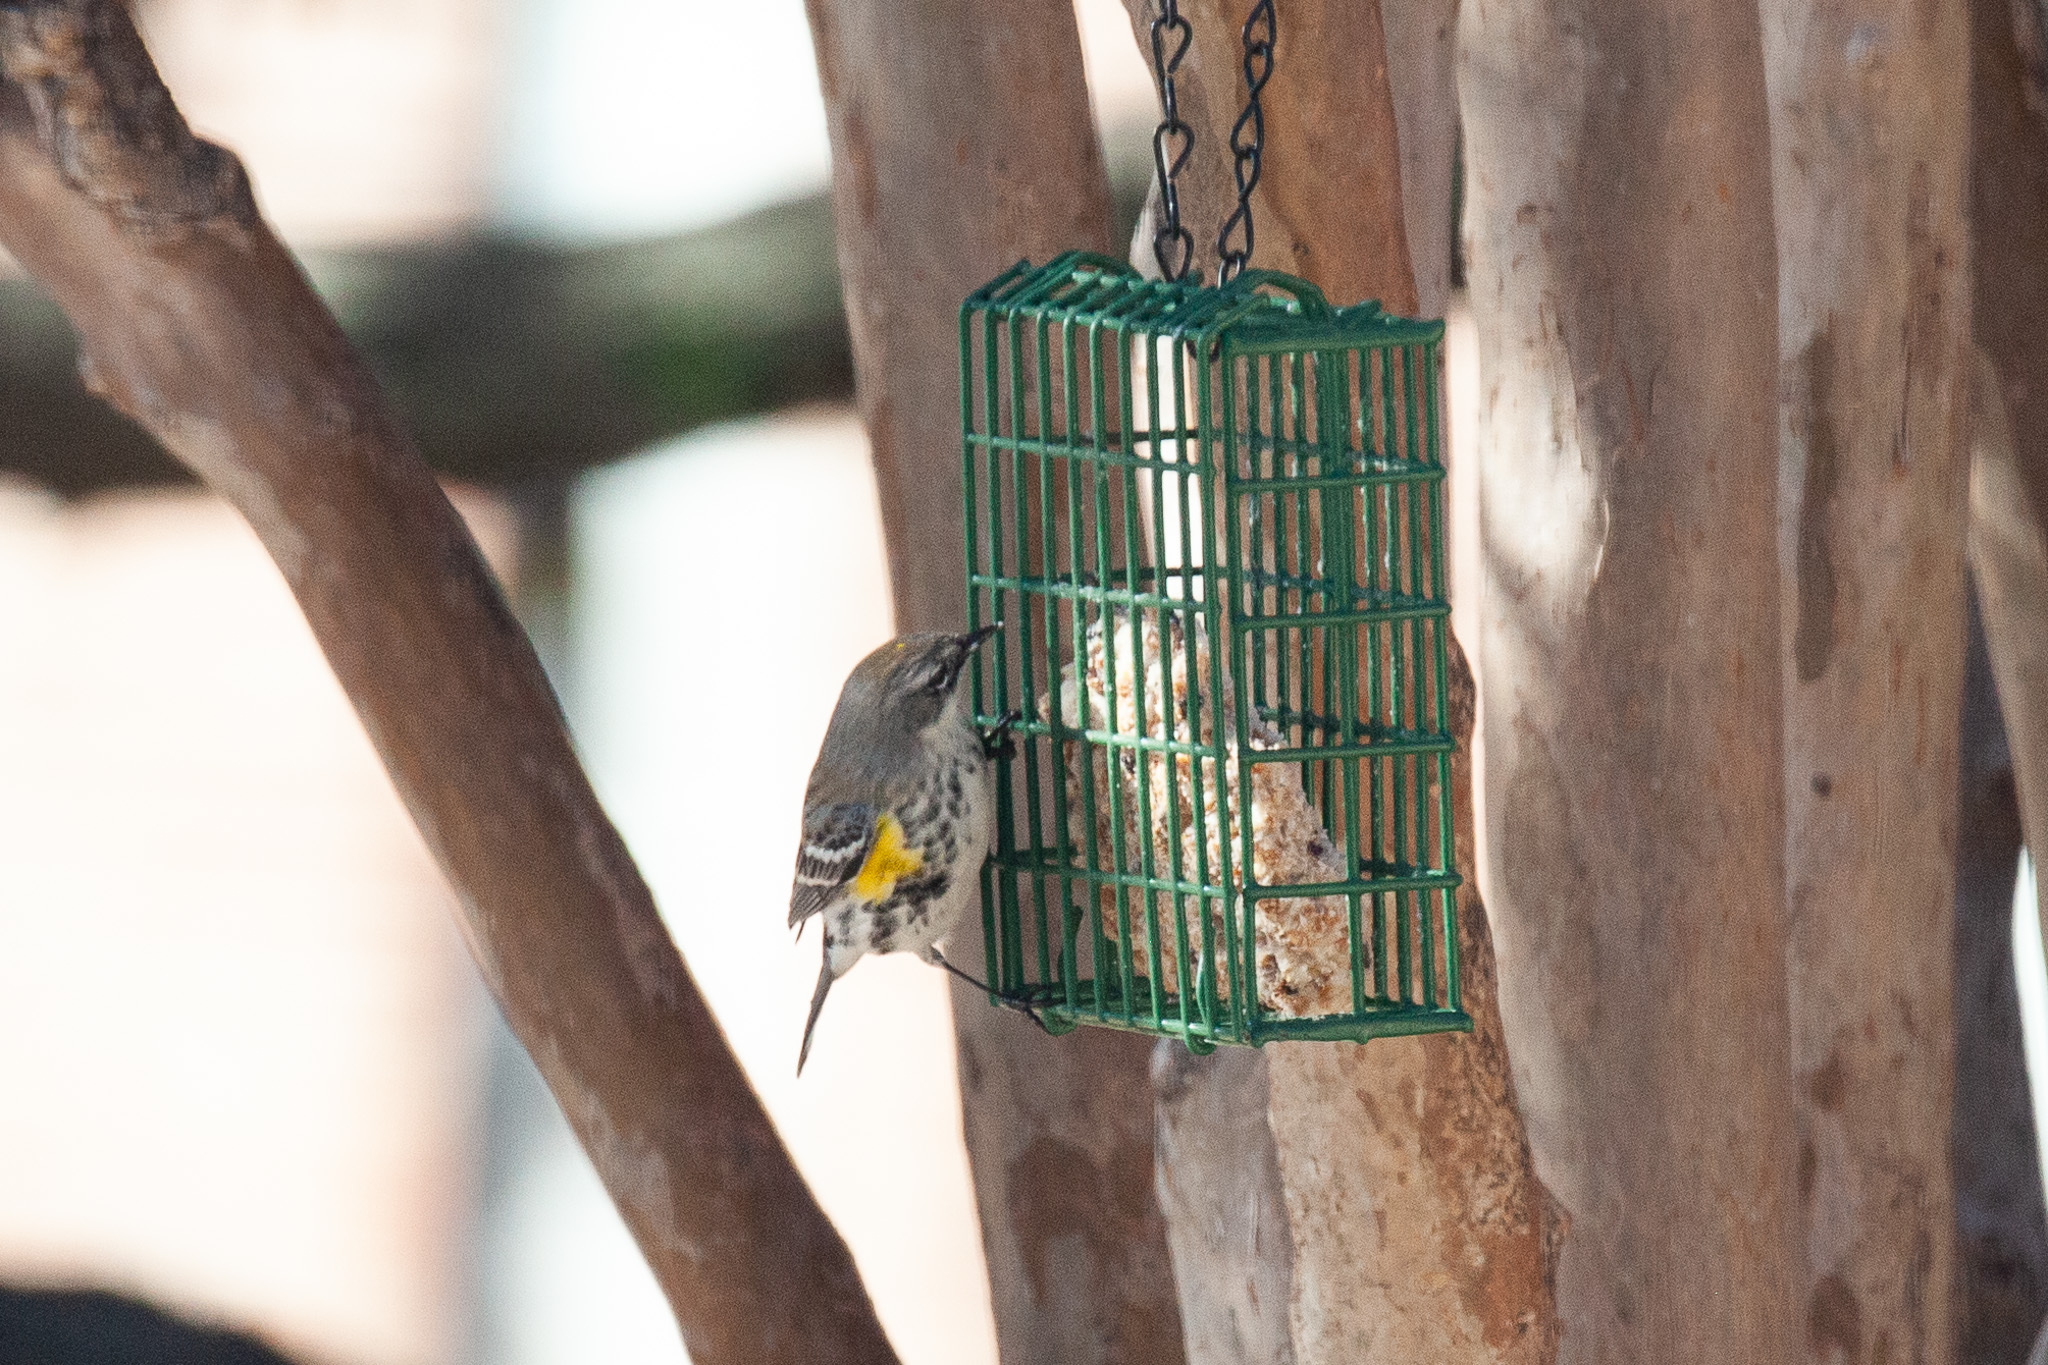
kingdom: Animalia
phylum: Chordata
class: Aves
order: Passeriformes
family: Parulidae
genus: Setophaga
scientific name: Setophaga coronata
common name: Myrtle warbler
